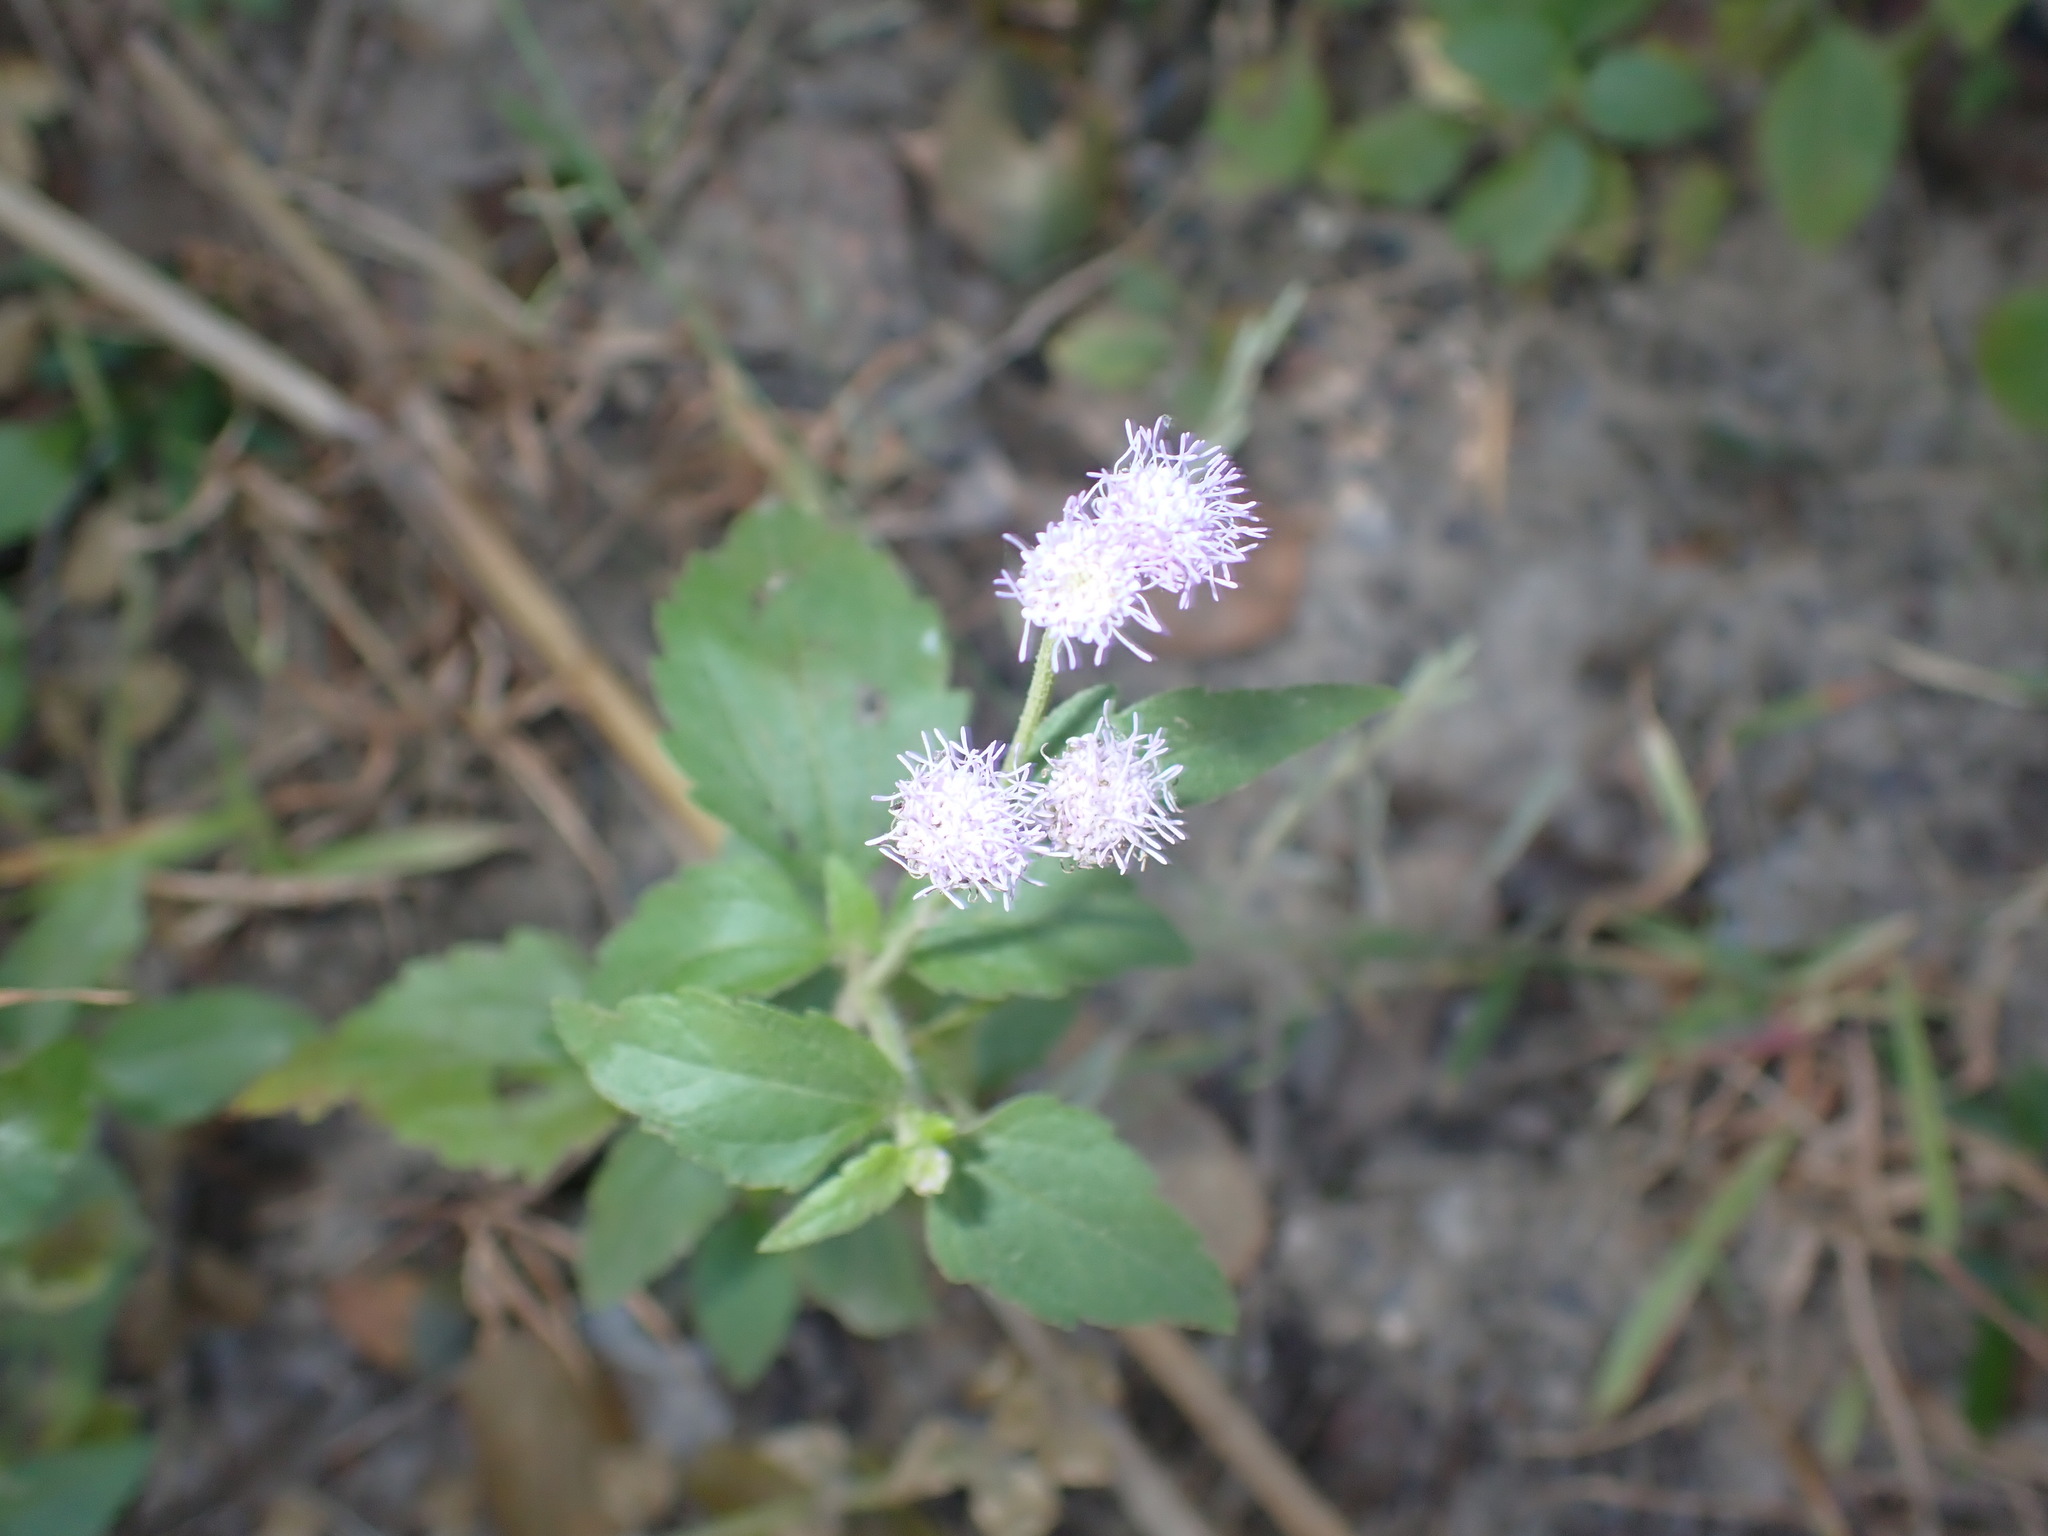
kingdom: Plantae
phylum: Tracheophyta
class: Magnoliopsida
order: Asterales
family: Asteraceae
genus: Praxelis
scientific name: Praxelis clematidea
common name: Praxelis
